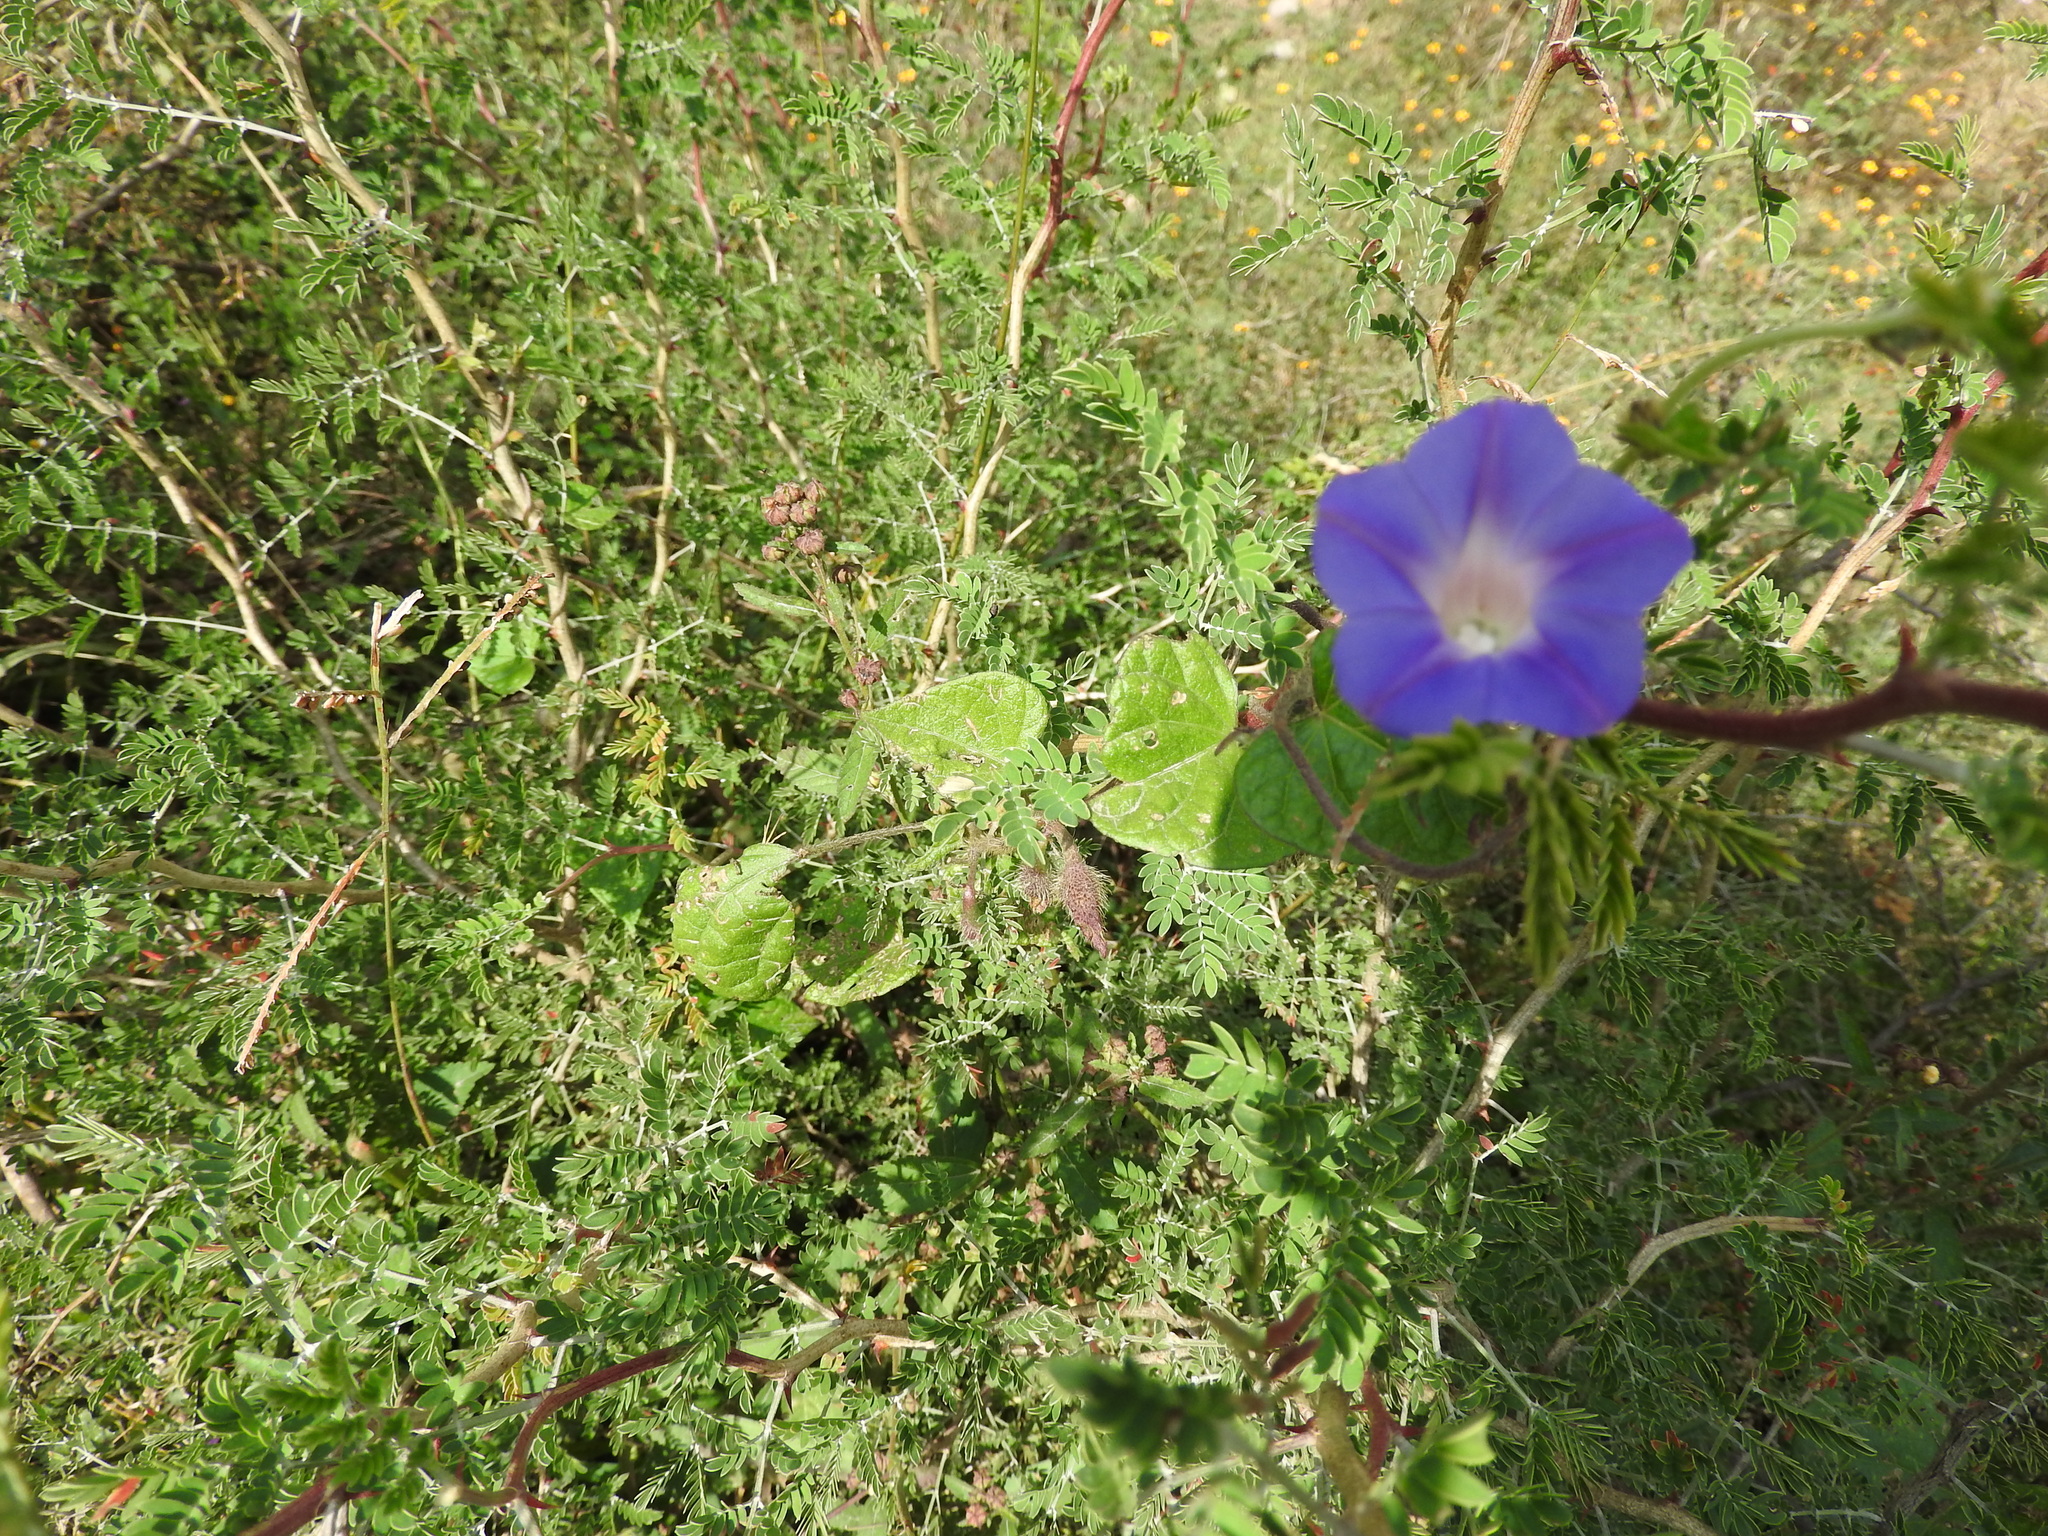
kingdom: Plantae
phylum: Tracheophyta
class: Magnoliopsida
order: Solanales
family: Convolvulaceae
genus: Ipomoea
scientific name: Ipomoea purpurea
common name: Common morning-glory
